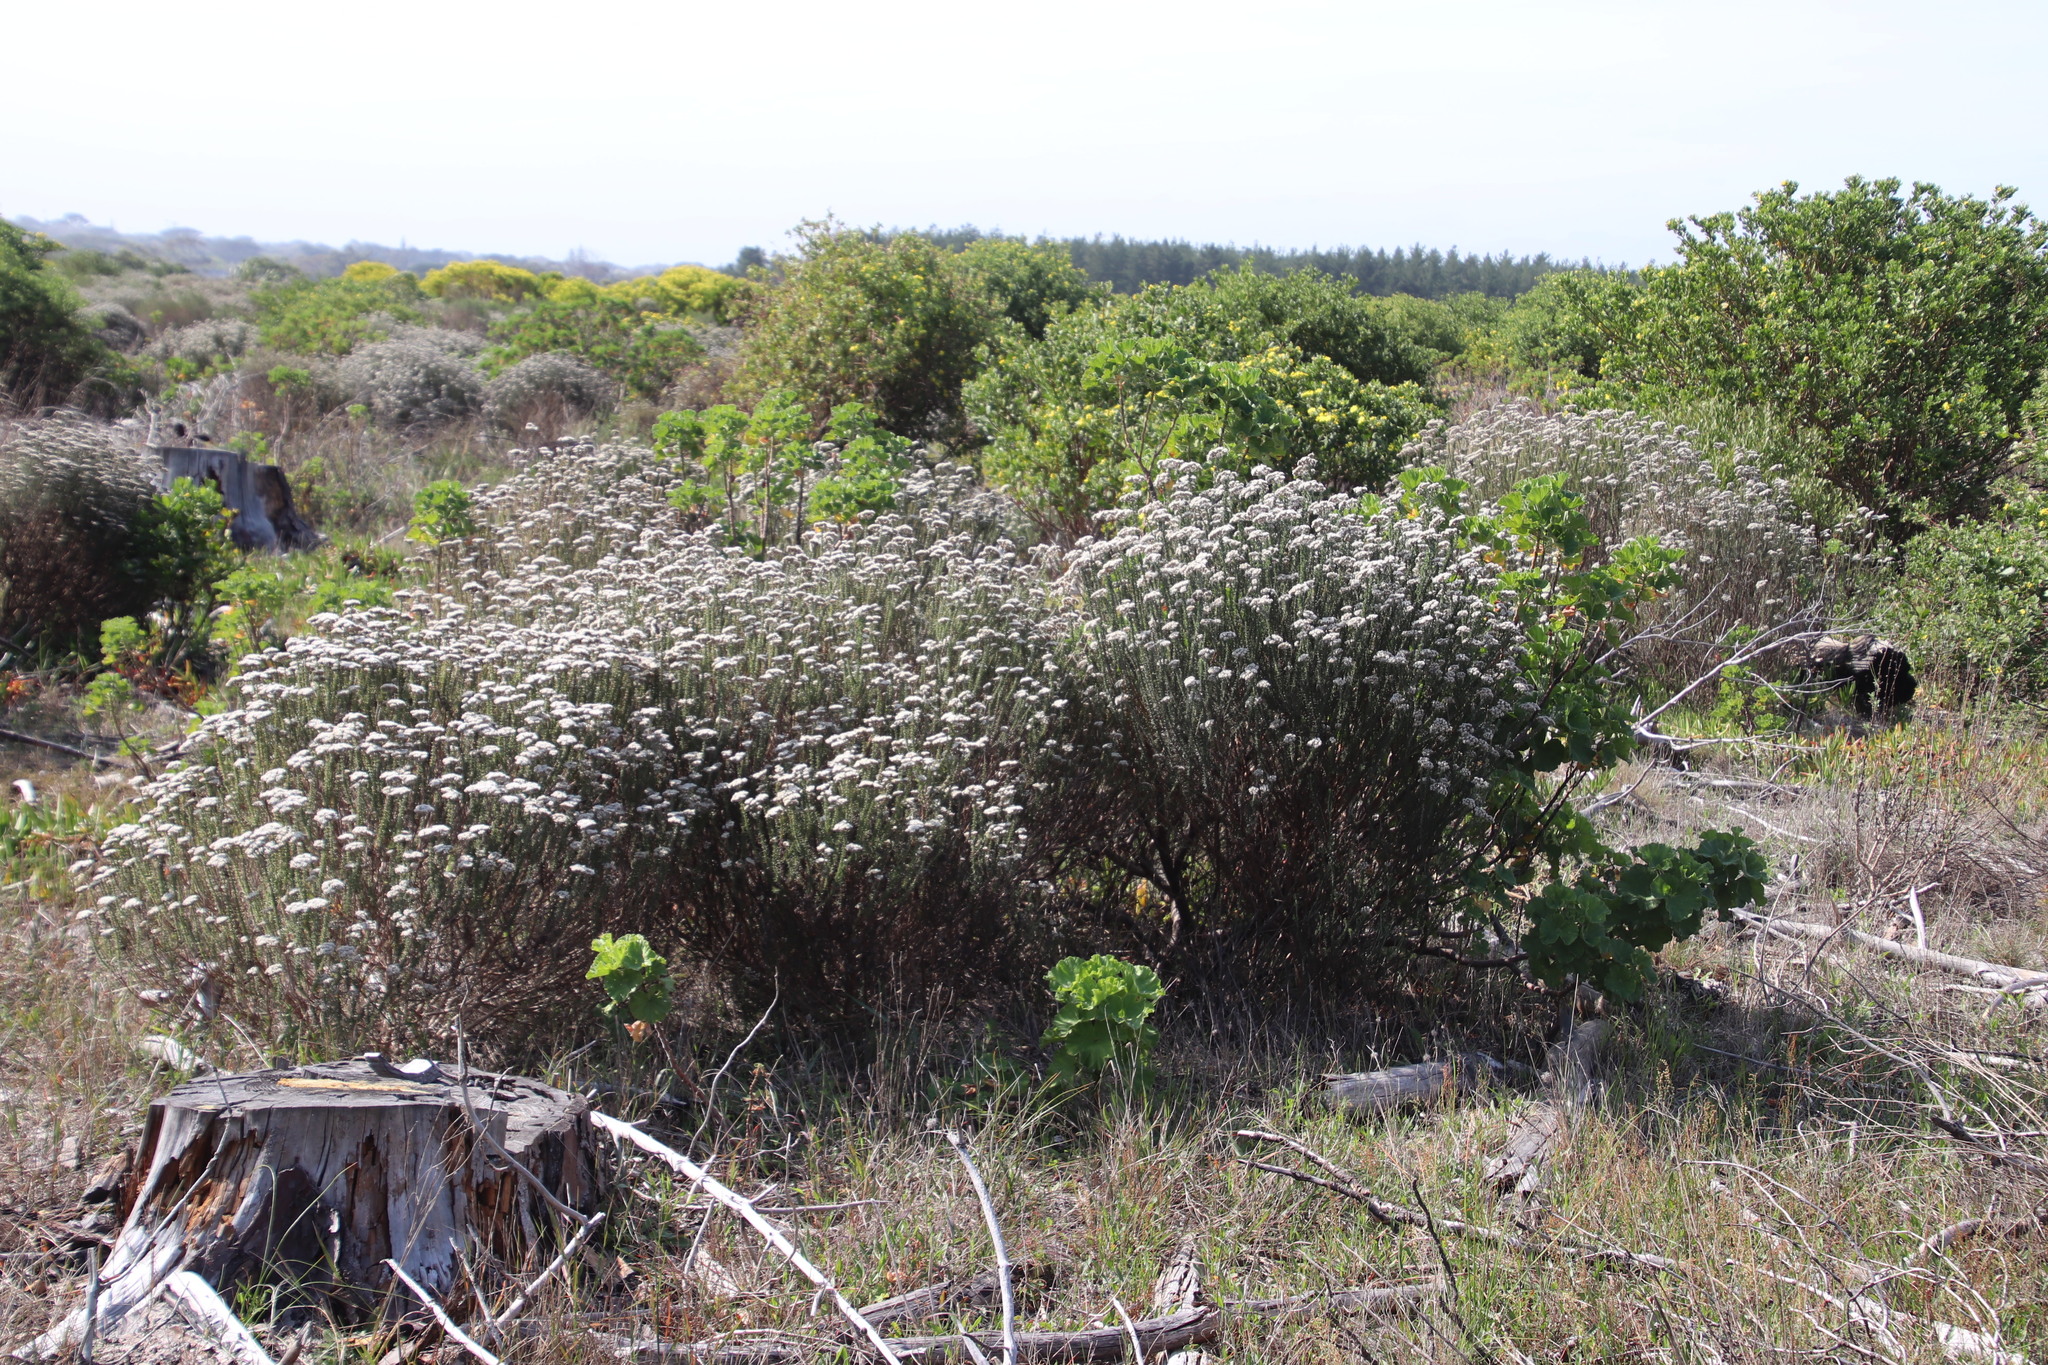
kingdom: Plantae
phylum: Tracheophyta
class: Magnoliopsida
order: Asterales
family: Asteraceae
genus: Metalasia
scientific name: Metalasia densa
